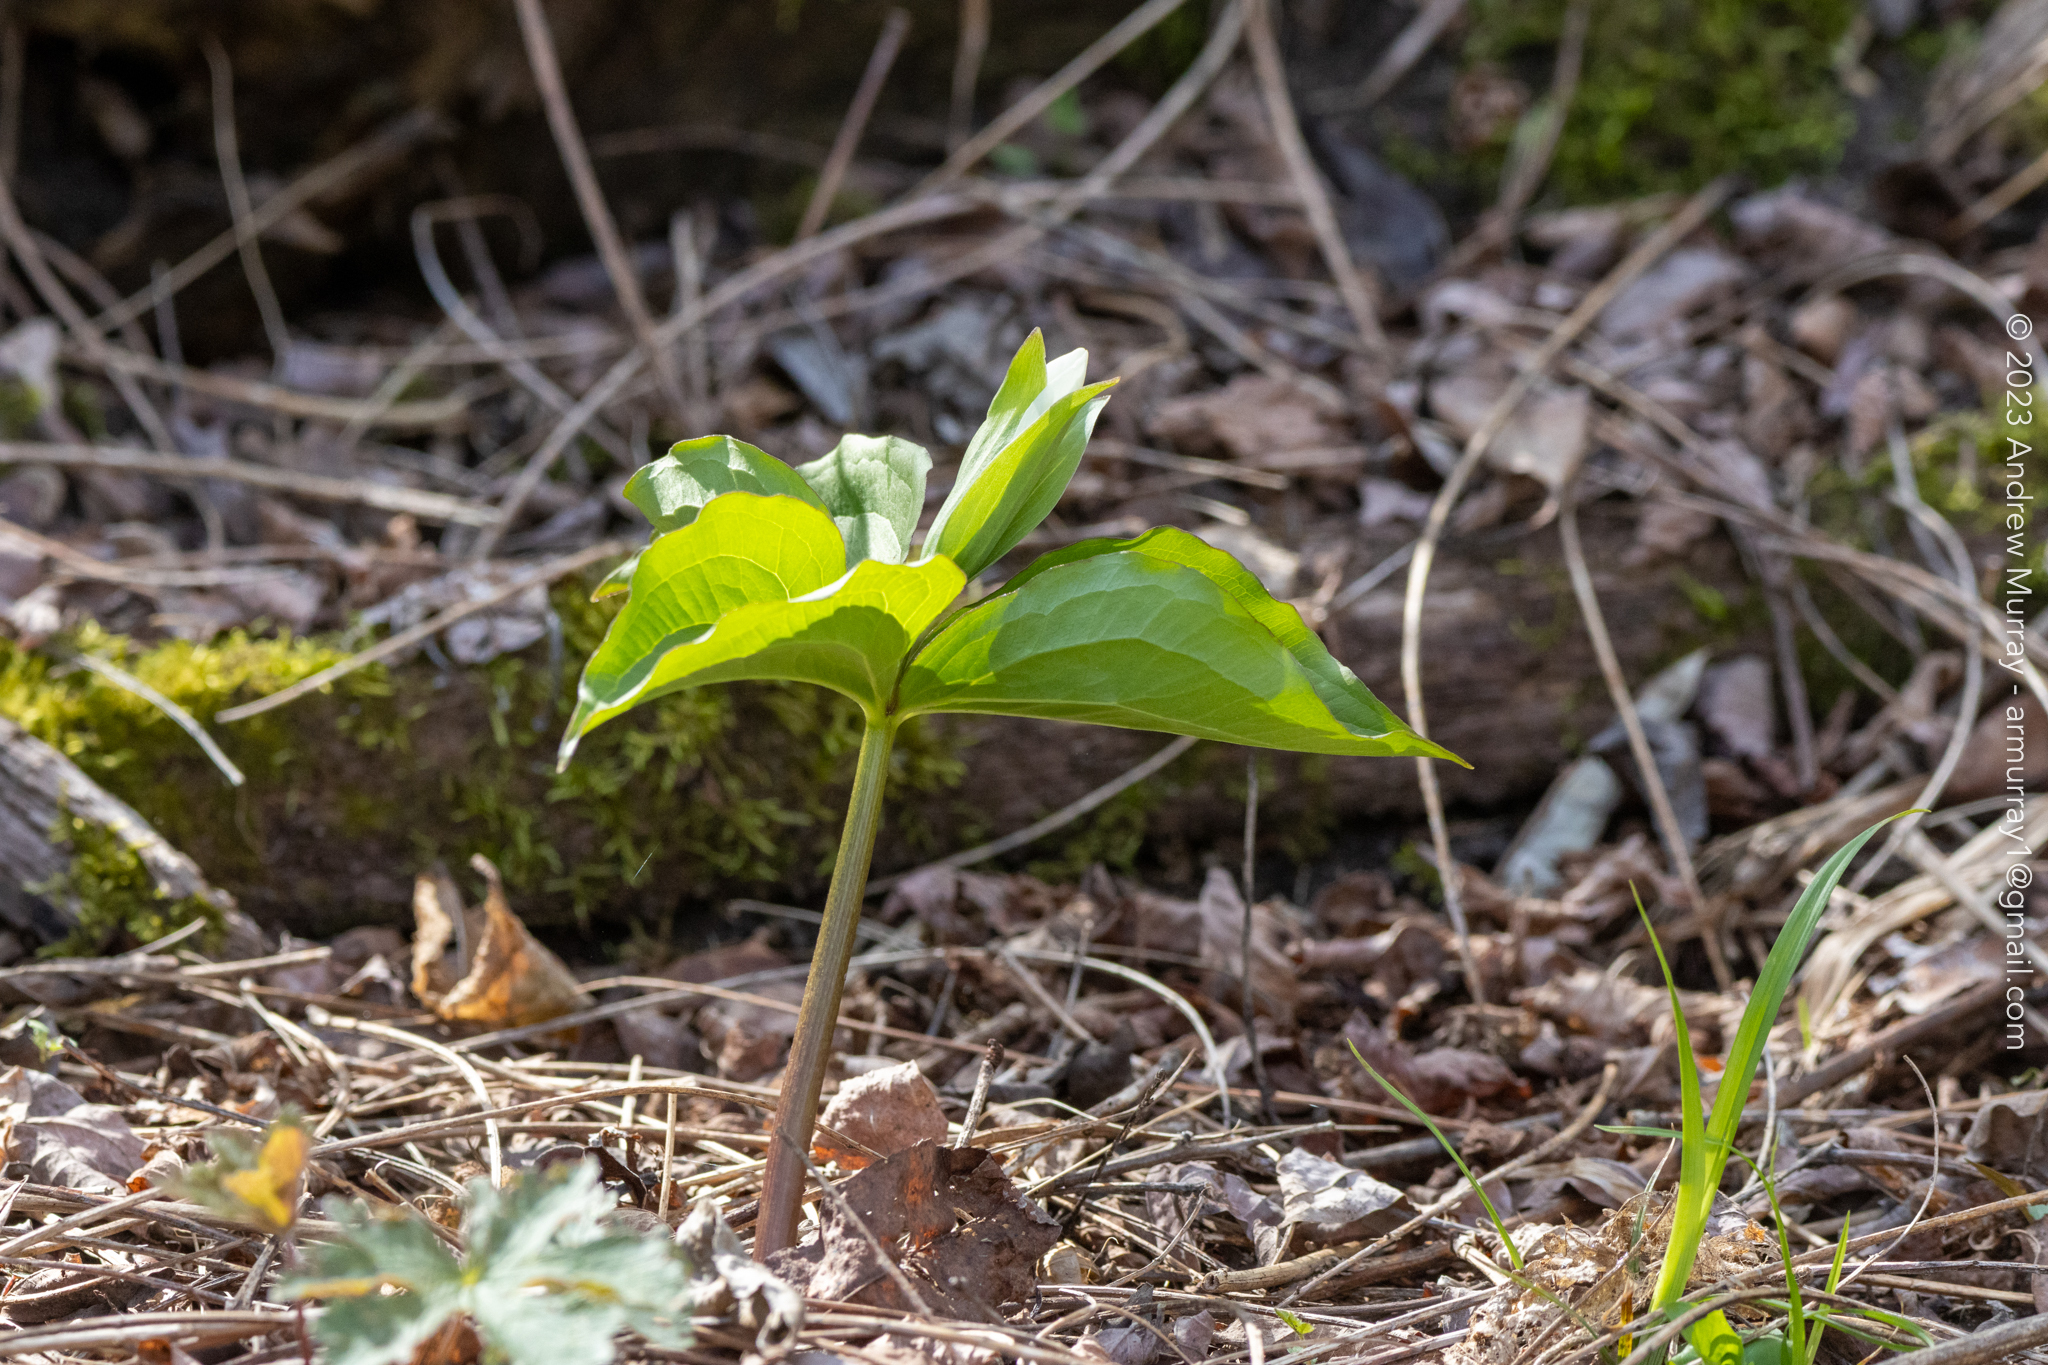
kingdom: Plantae
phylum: Tracheophyta
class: Liliopsida
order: Liliales
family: Melanthiaceae
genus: Trillium
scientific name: Trillium grandiflorum
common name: Great white trillium
